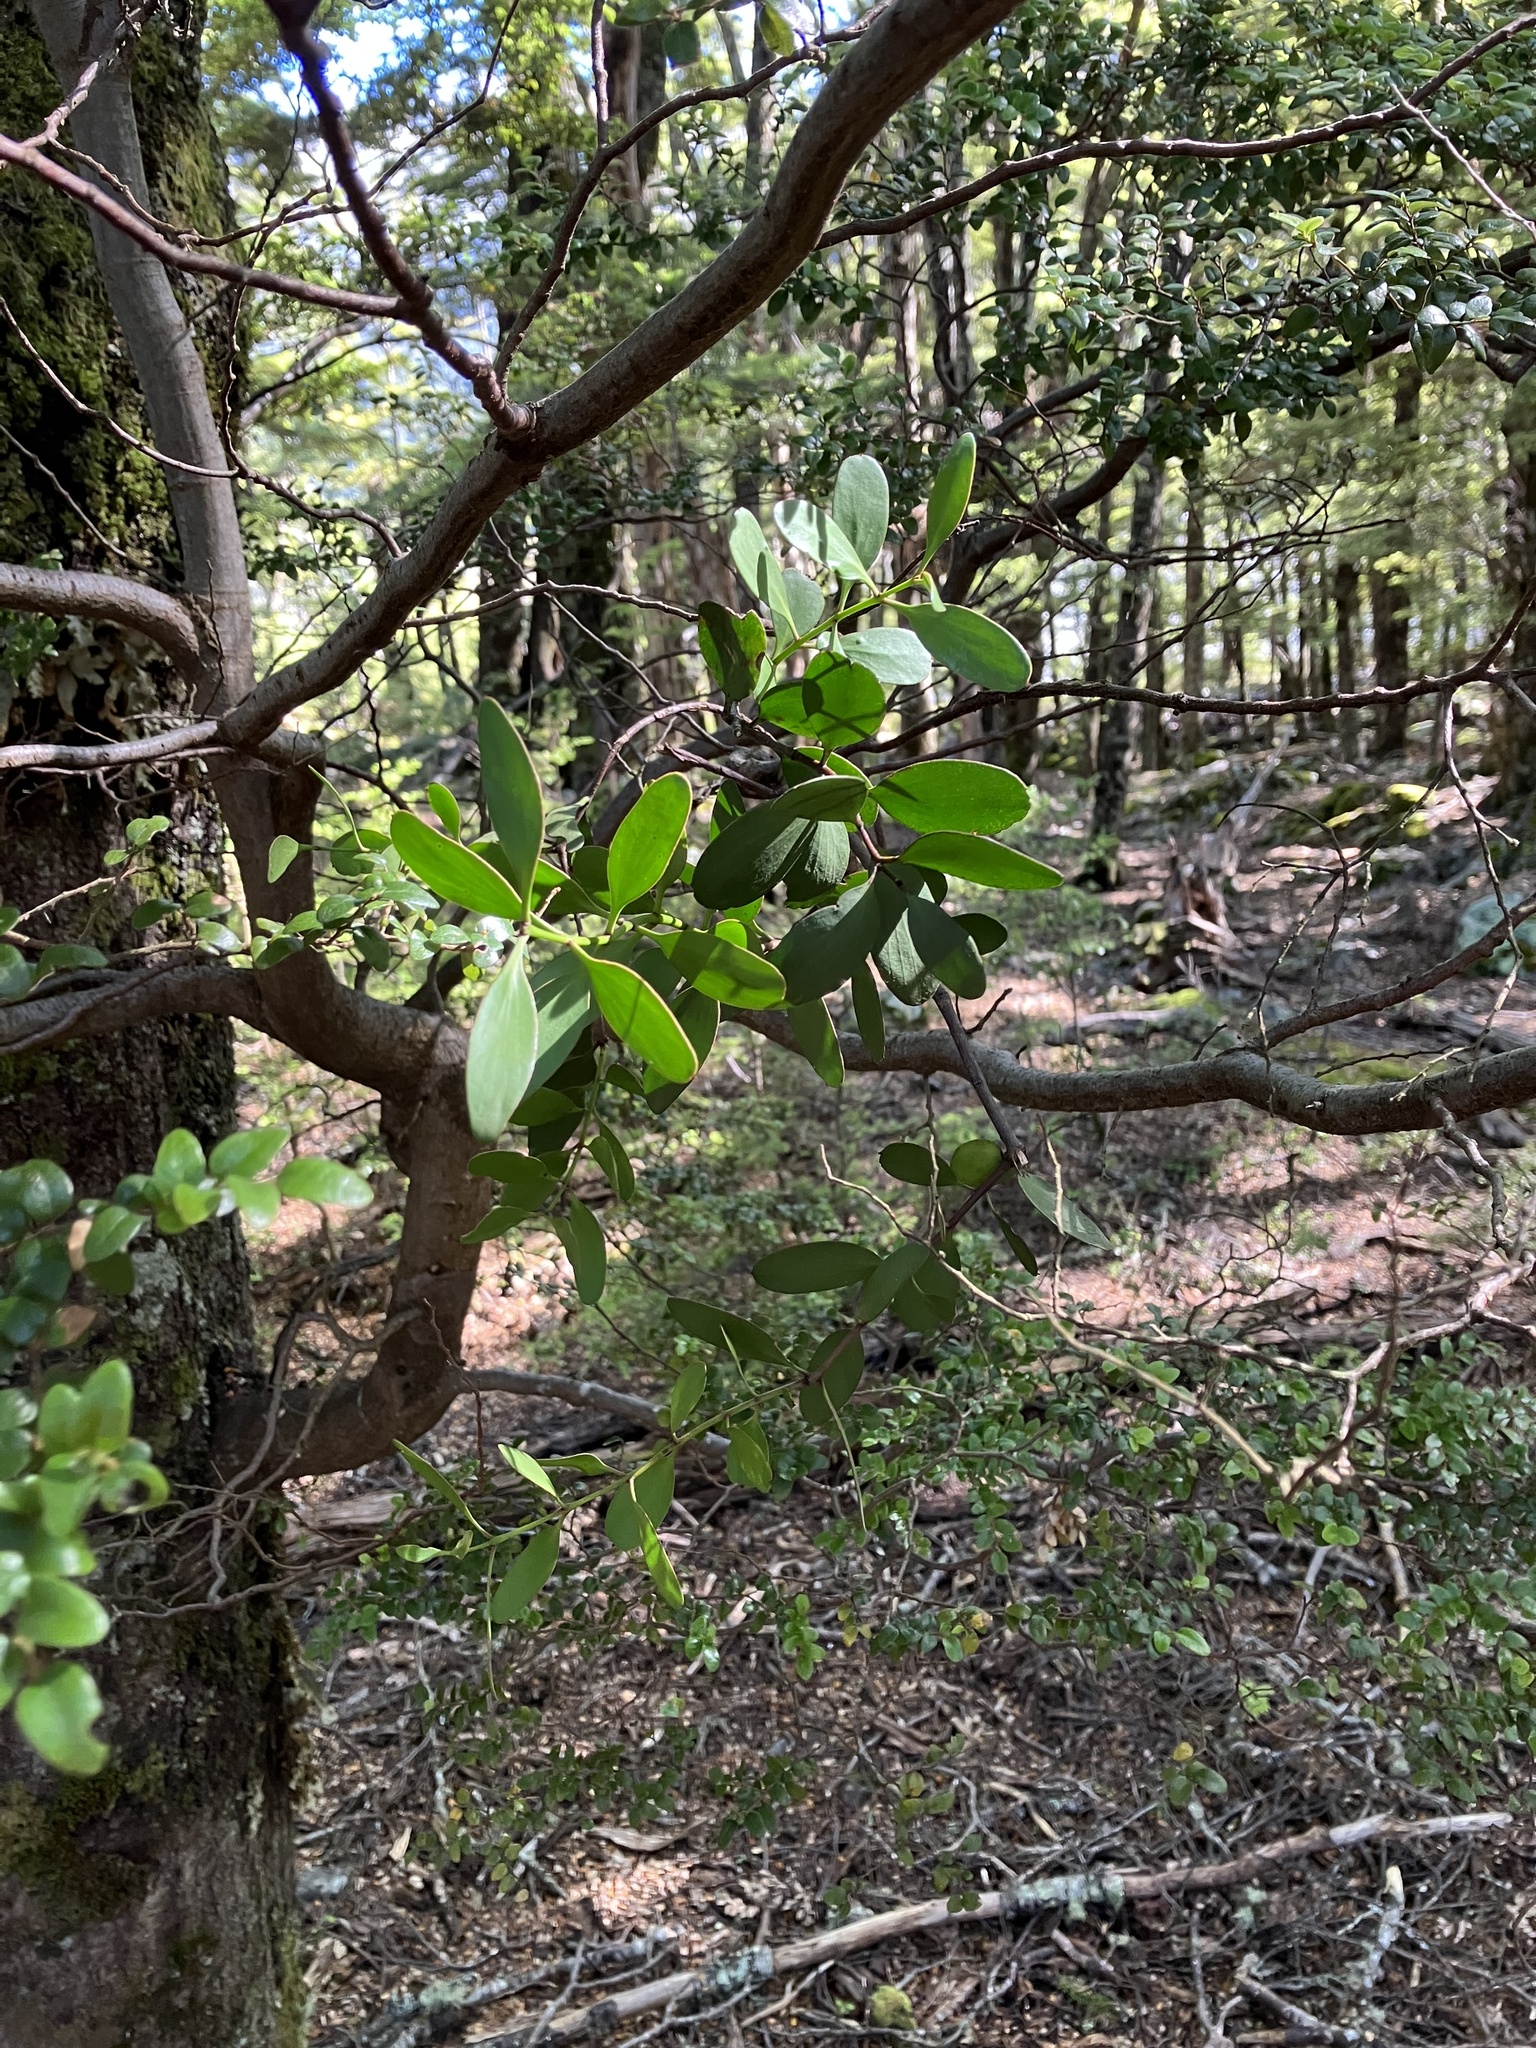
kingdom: Plantae
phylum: Tracheophyta
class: Magnoliopsida
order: Santalales
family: Loranthaceae
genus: Alepis
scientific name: Alepis flavida
